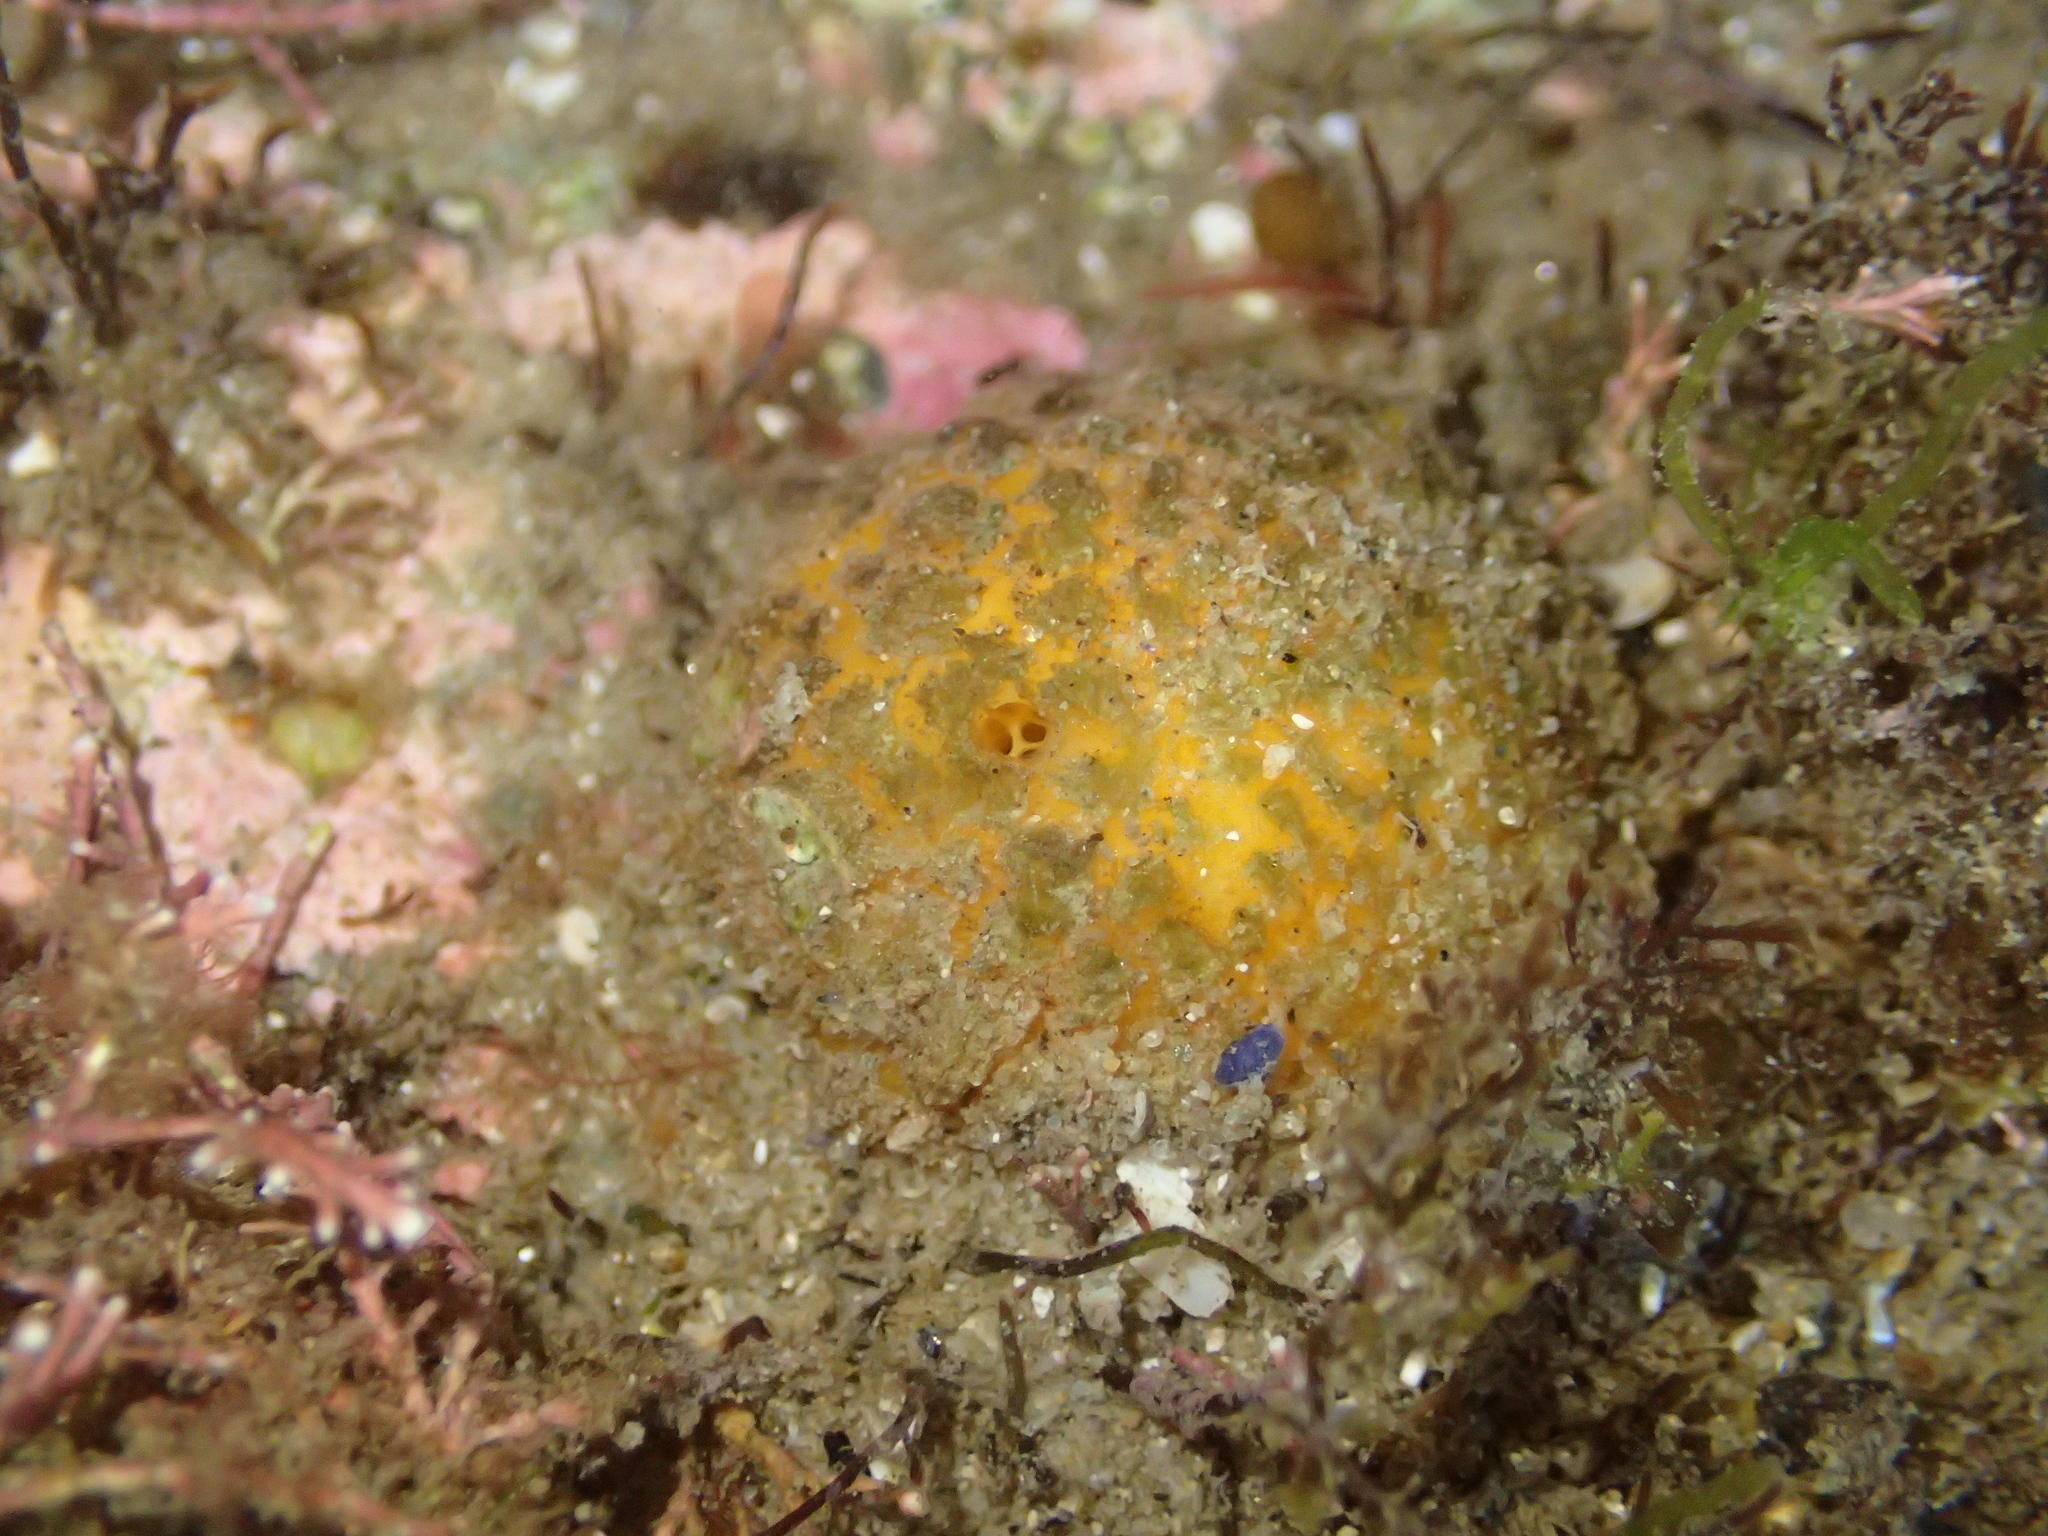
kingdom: Animalia
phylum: Porifera
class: Demospongiae
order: Tethyida
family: Tethyidae
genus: Tethya
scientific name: Tethya burtoni
